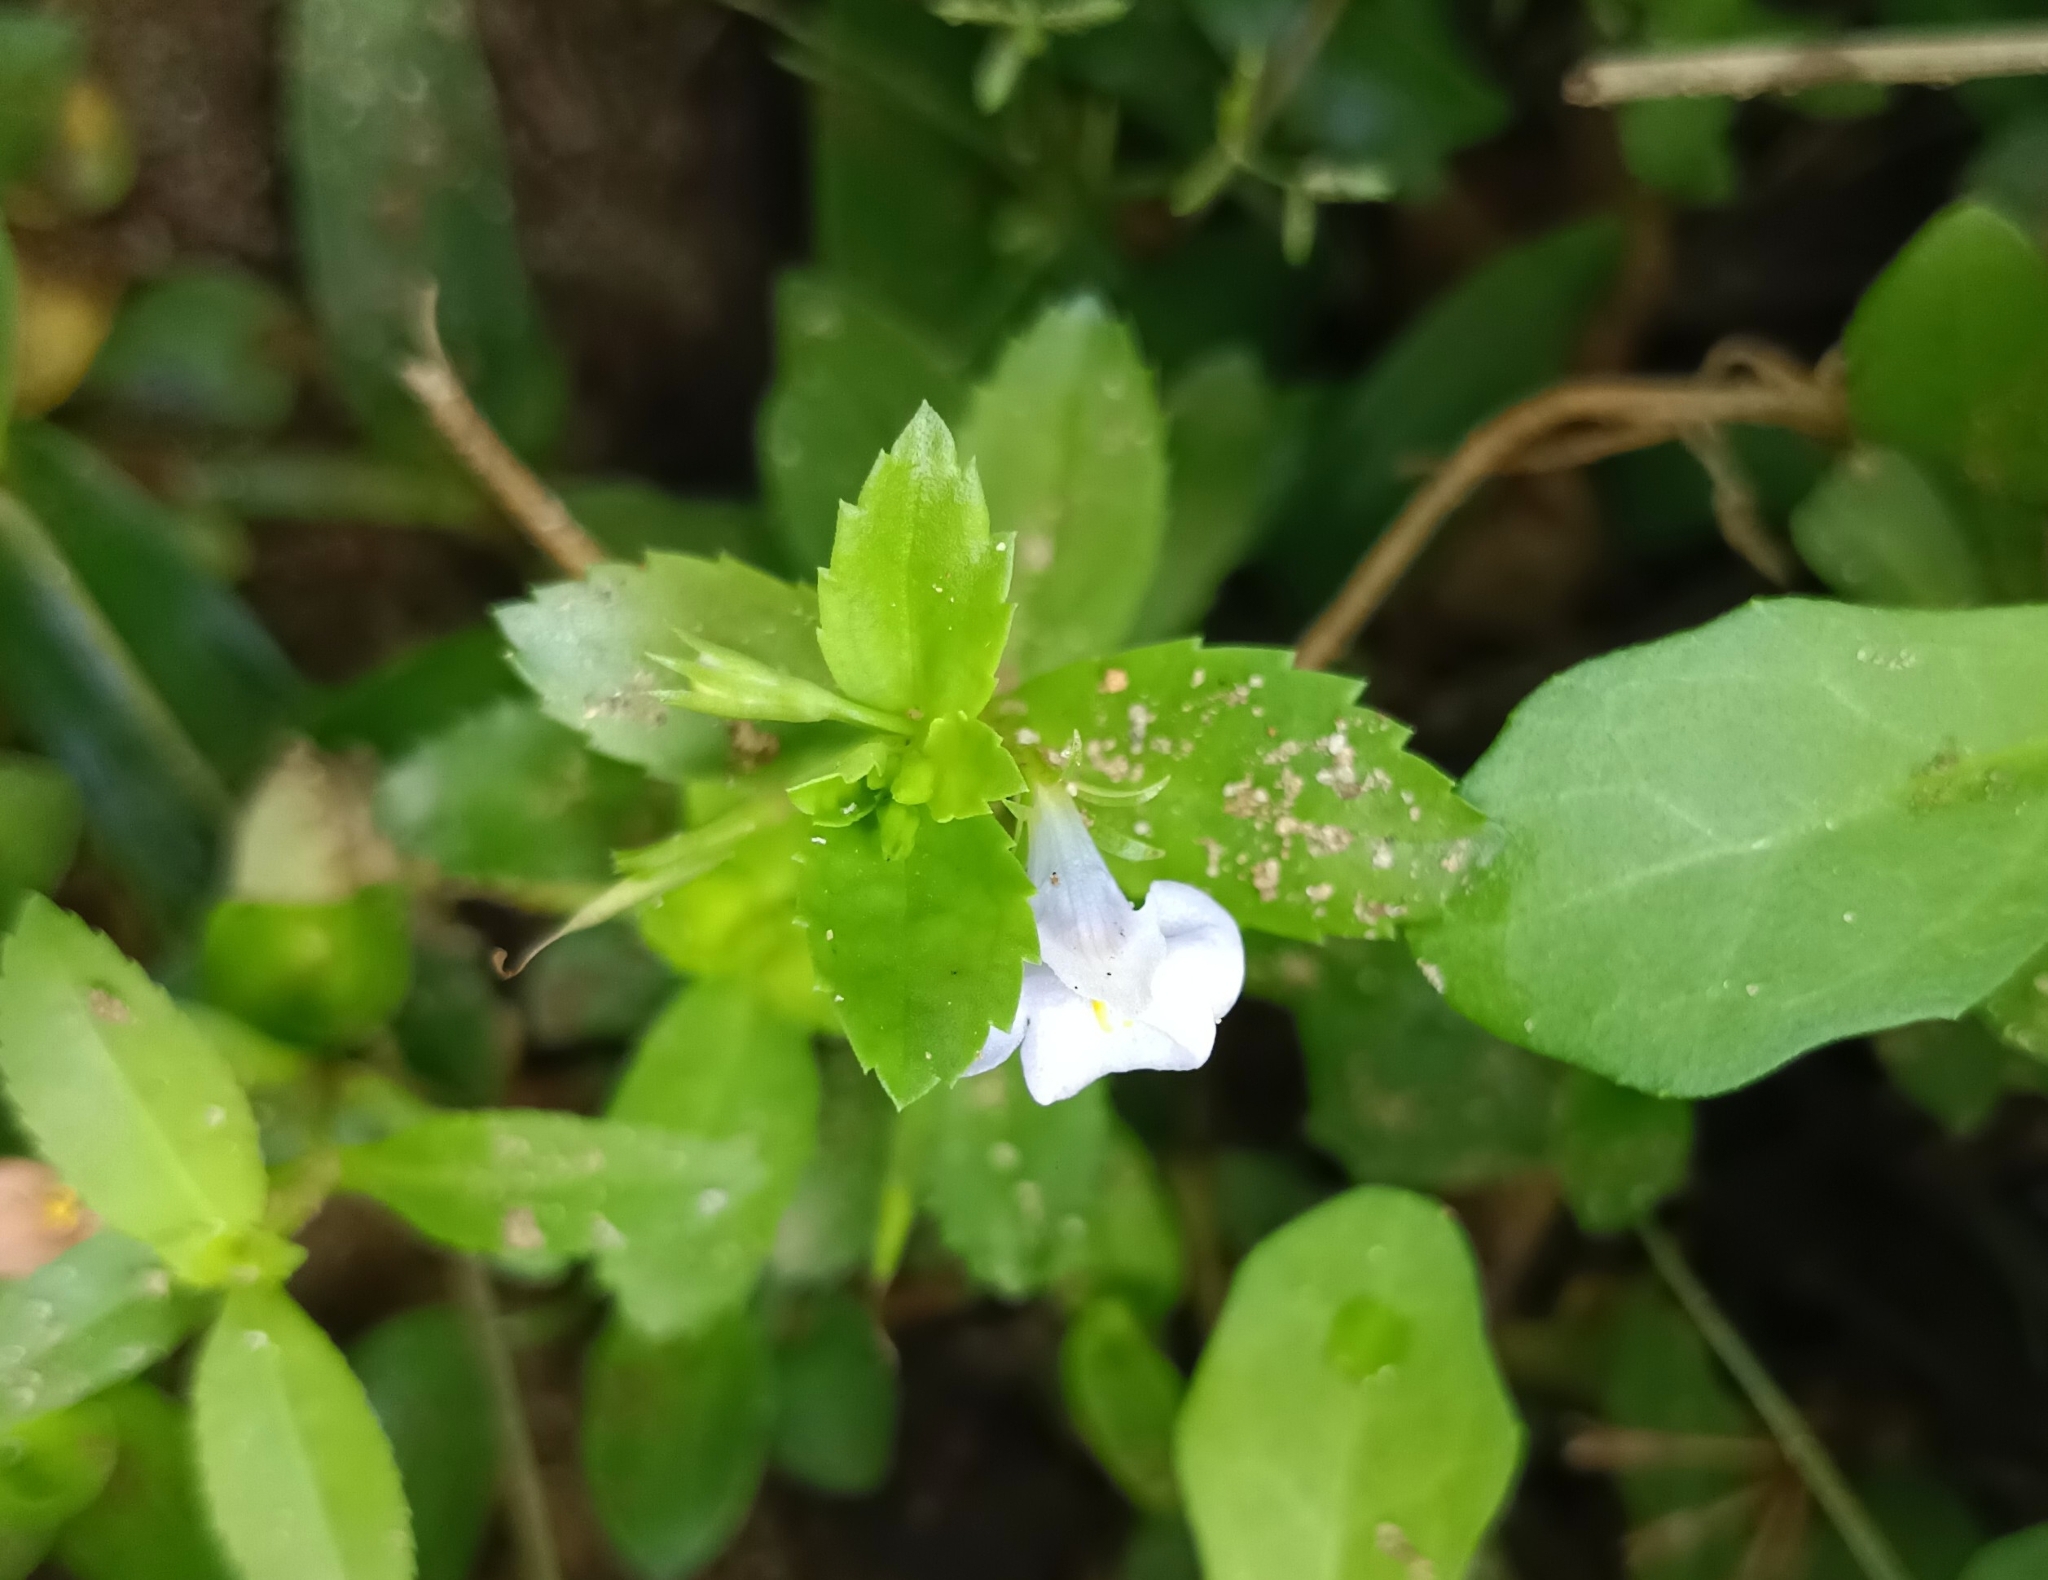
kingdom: Plantae
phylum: Tracheophyta
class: Magnoliopsida
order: Lamiales
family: Linderniaceae
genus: Bonnaya
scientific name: Bonnaya antipoda
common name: Sparrow false pimpernel
